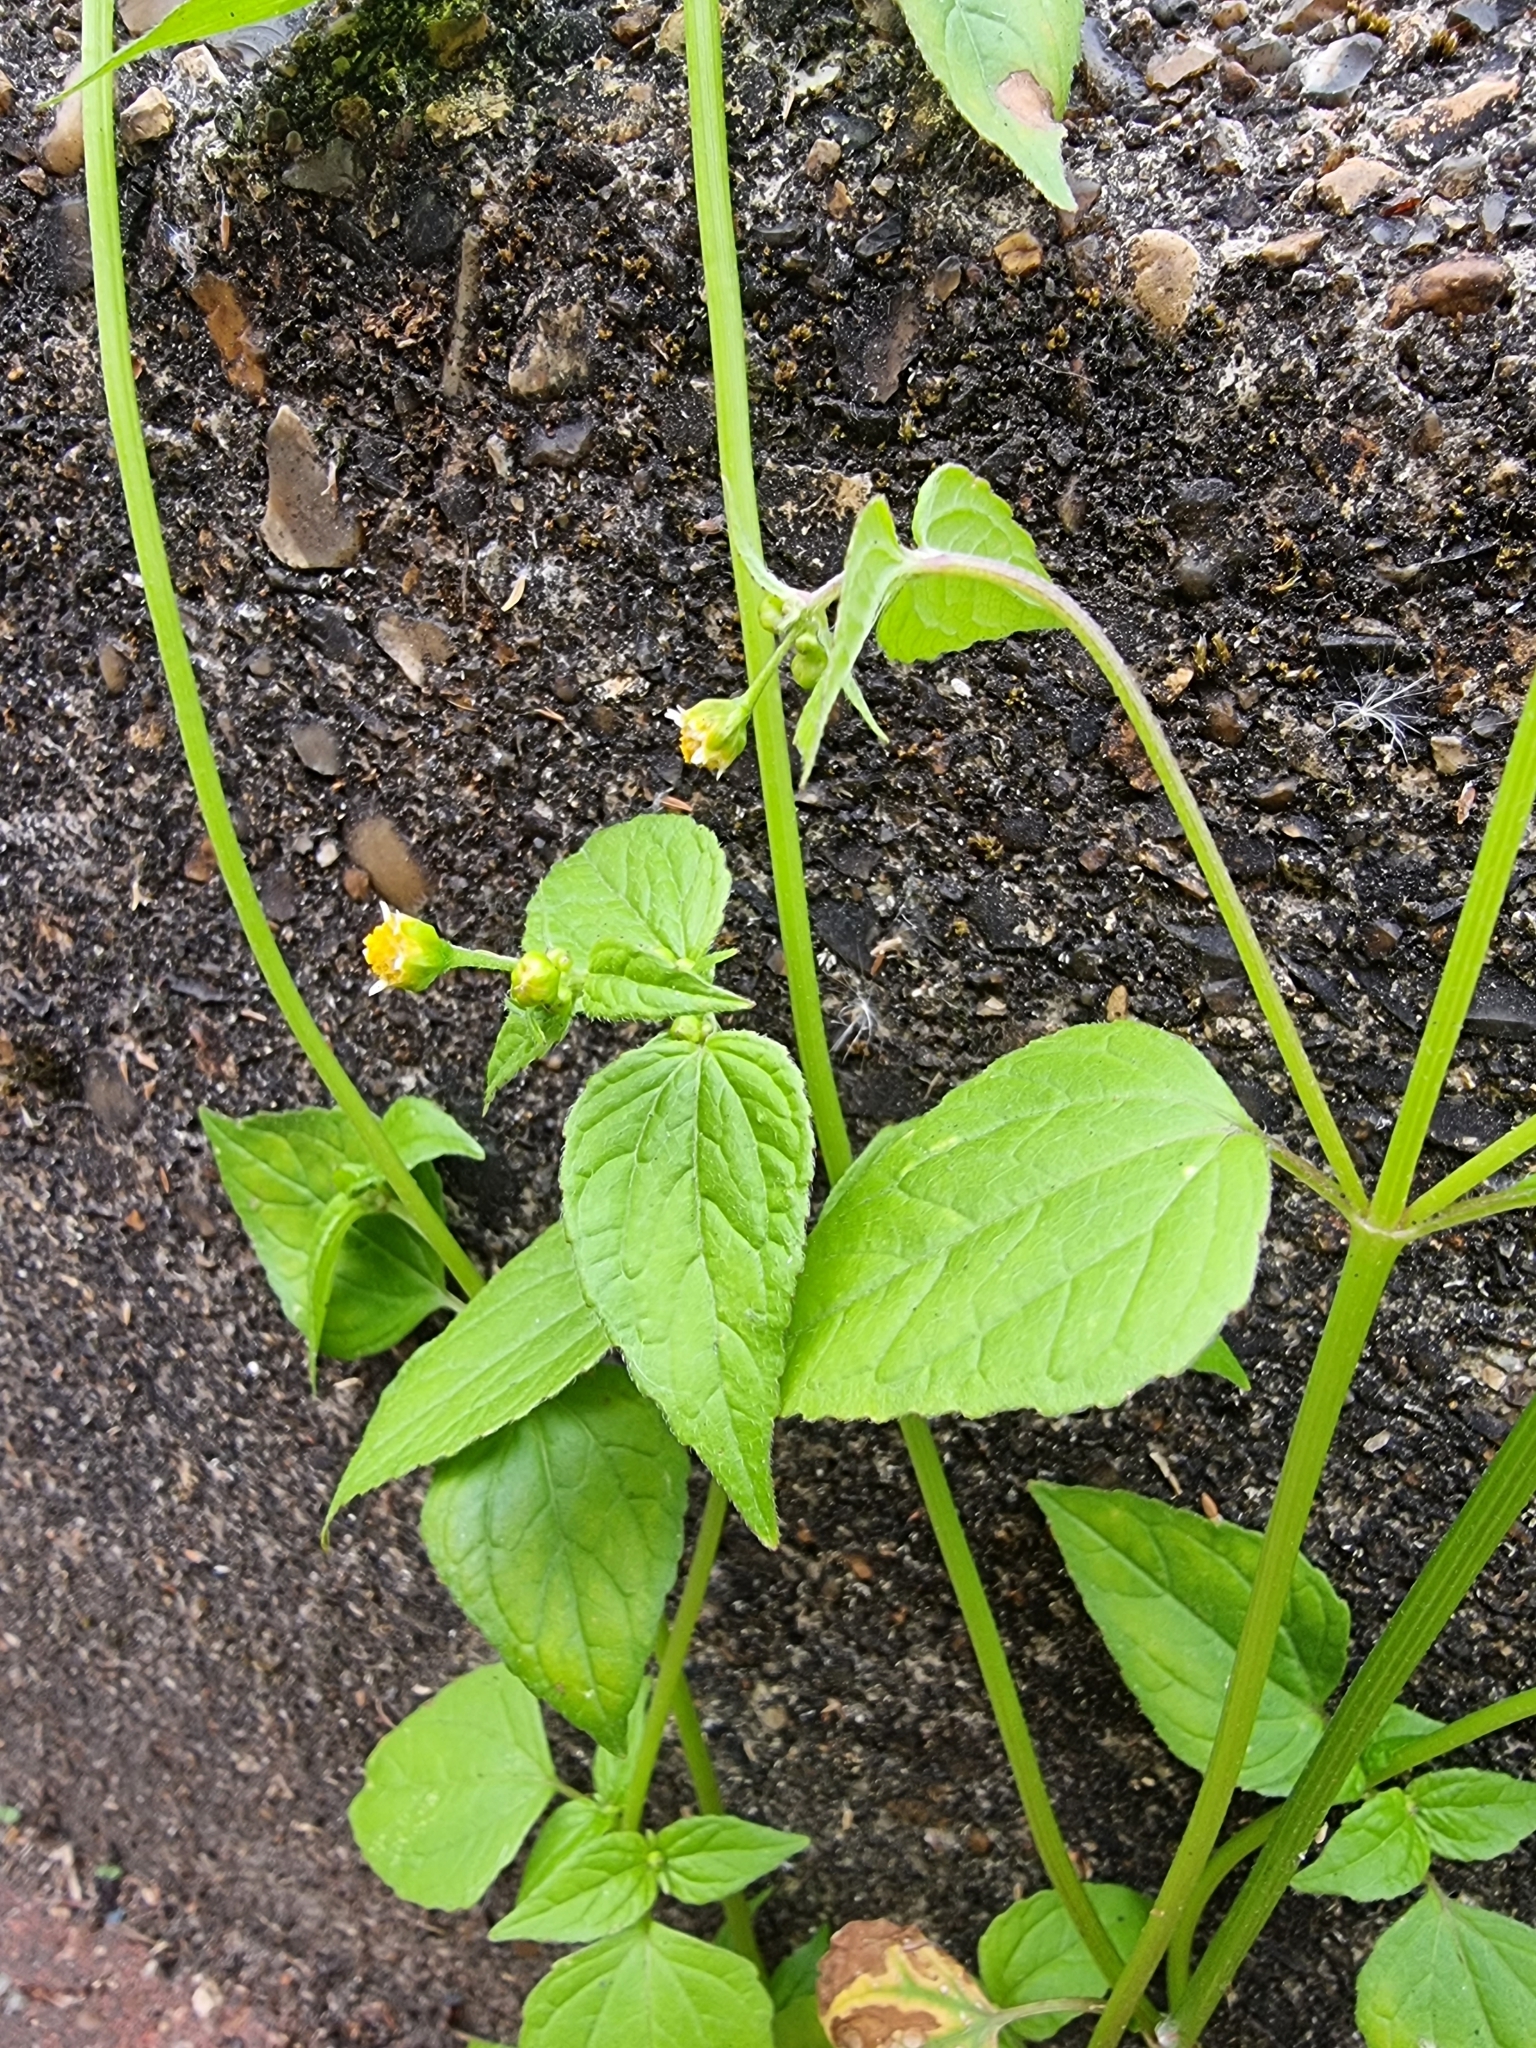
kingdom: Plantae
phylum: Tracheophyta
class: Magnoliopsida
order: Asterales
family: Asteraceae
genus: Galinsoga
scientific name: Galinsoga parviflora
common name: Gallant soldier
